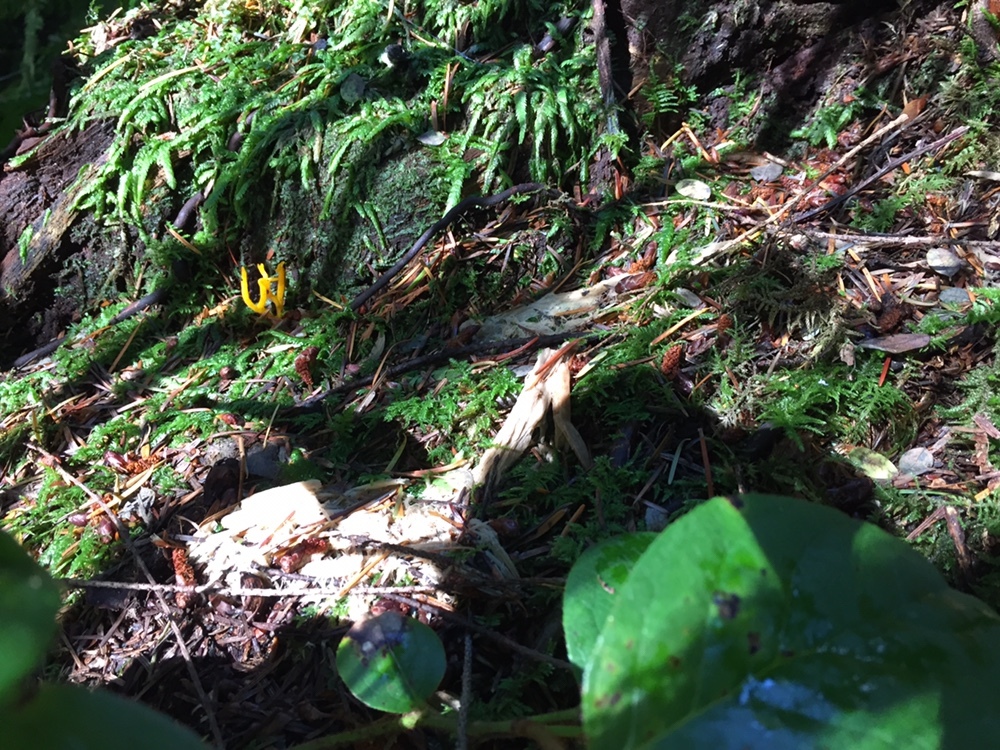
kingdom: Fungi
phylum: Basidiomycota
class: Dacrymycetes
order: Dacrymycetales
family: Dacrymycetaceae
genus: Calocera
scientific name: Calocera cornea
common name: Small stagshorn
